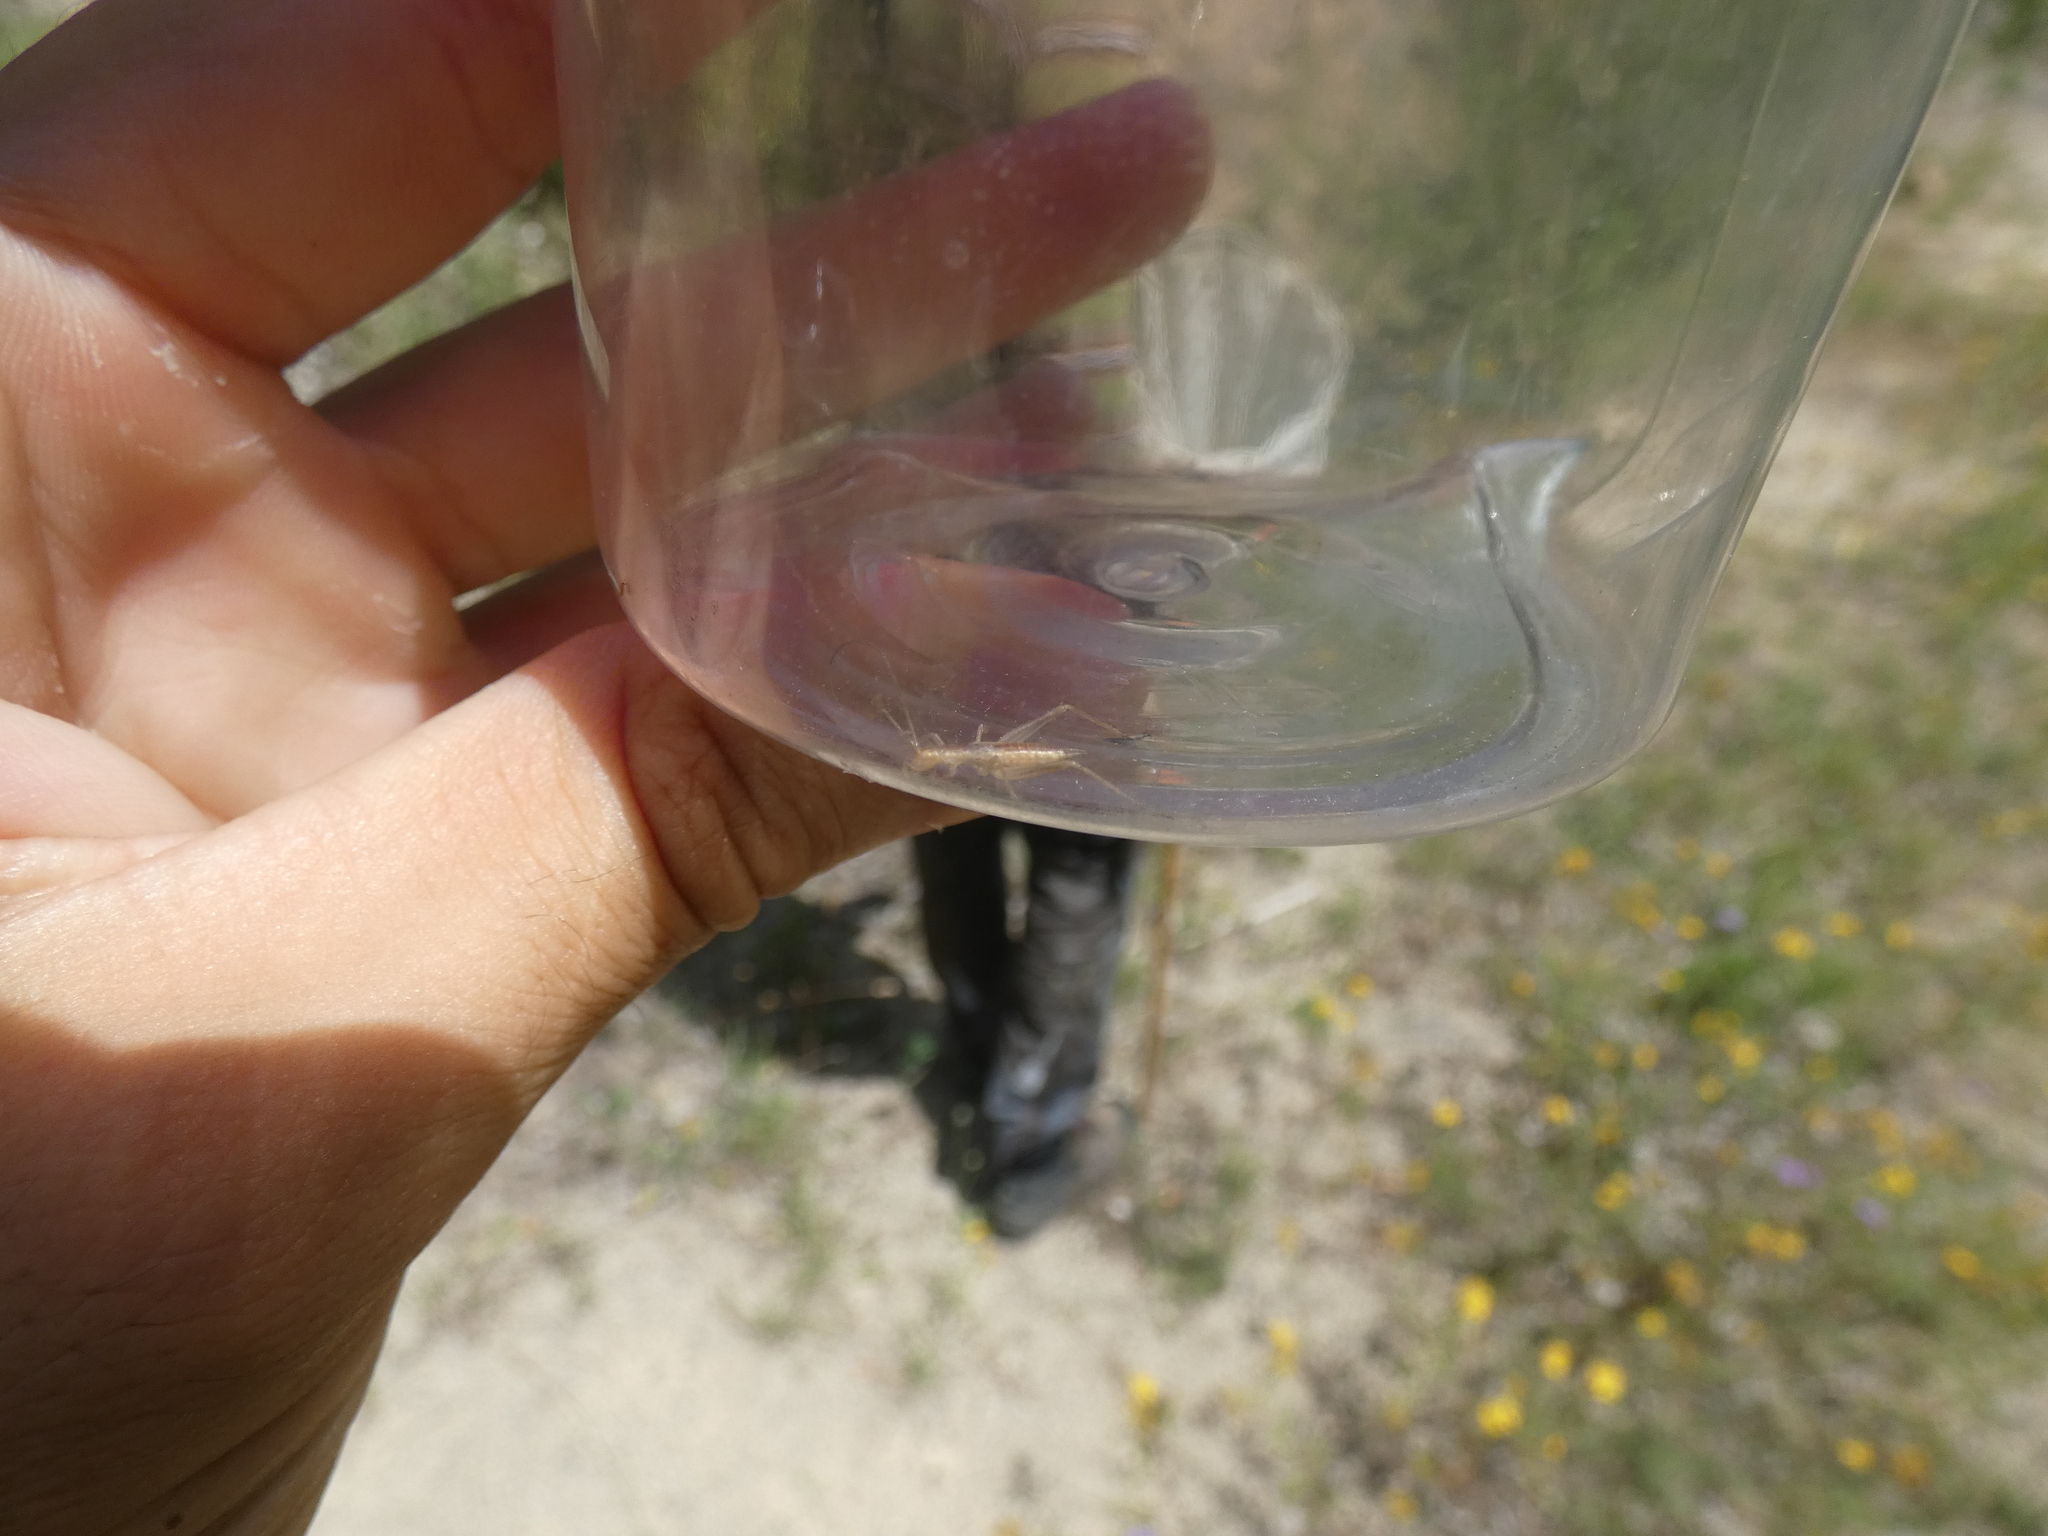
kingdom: Animalia
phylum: Arthropoda
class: Insecta
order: Orthoptera
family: Gryllidae
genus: Oecanthus
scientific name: Oecanthus pellucens
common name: Tree-cricket
